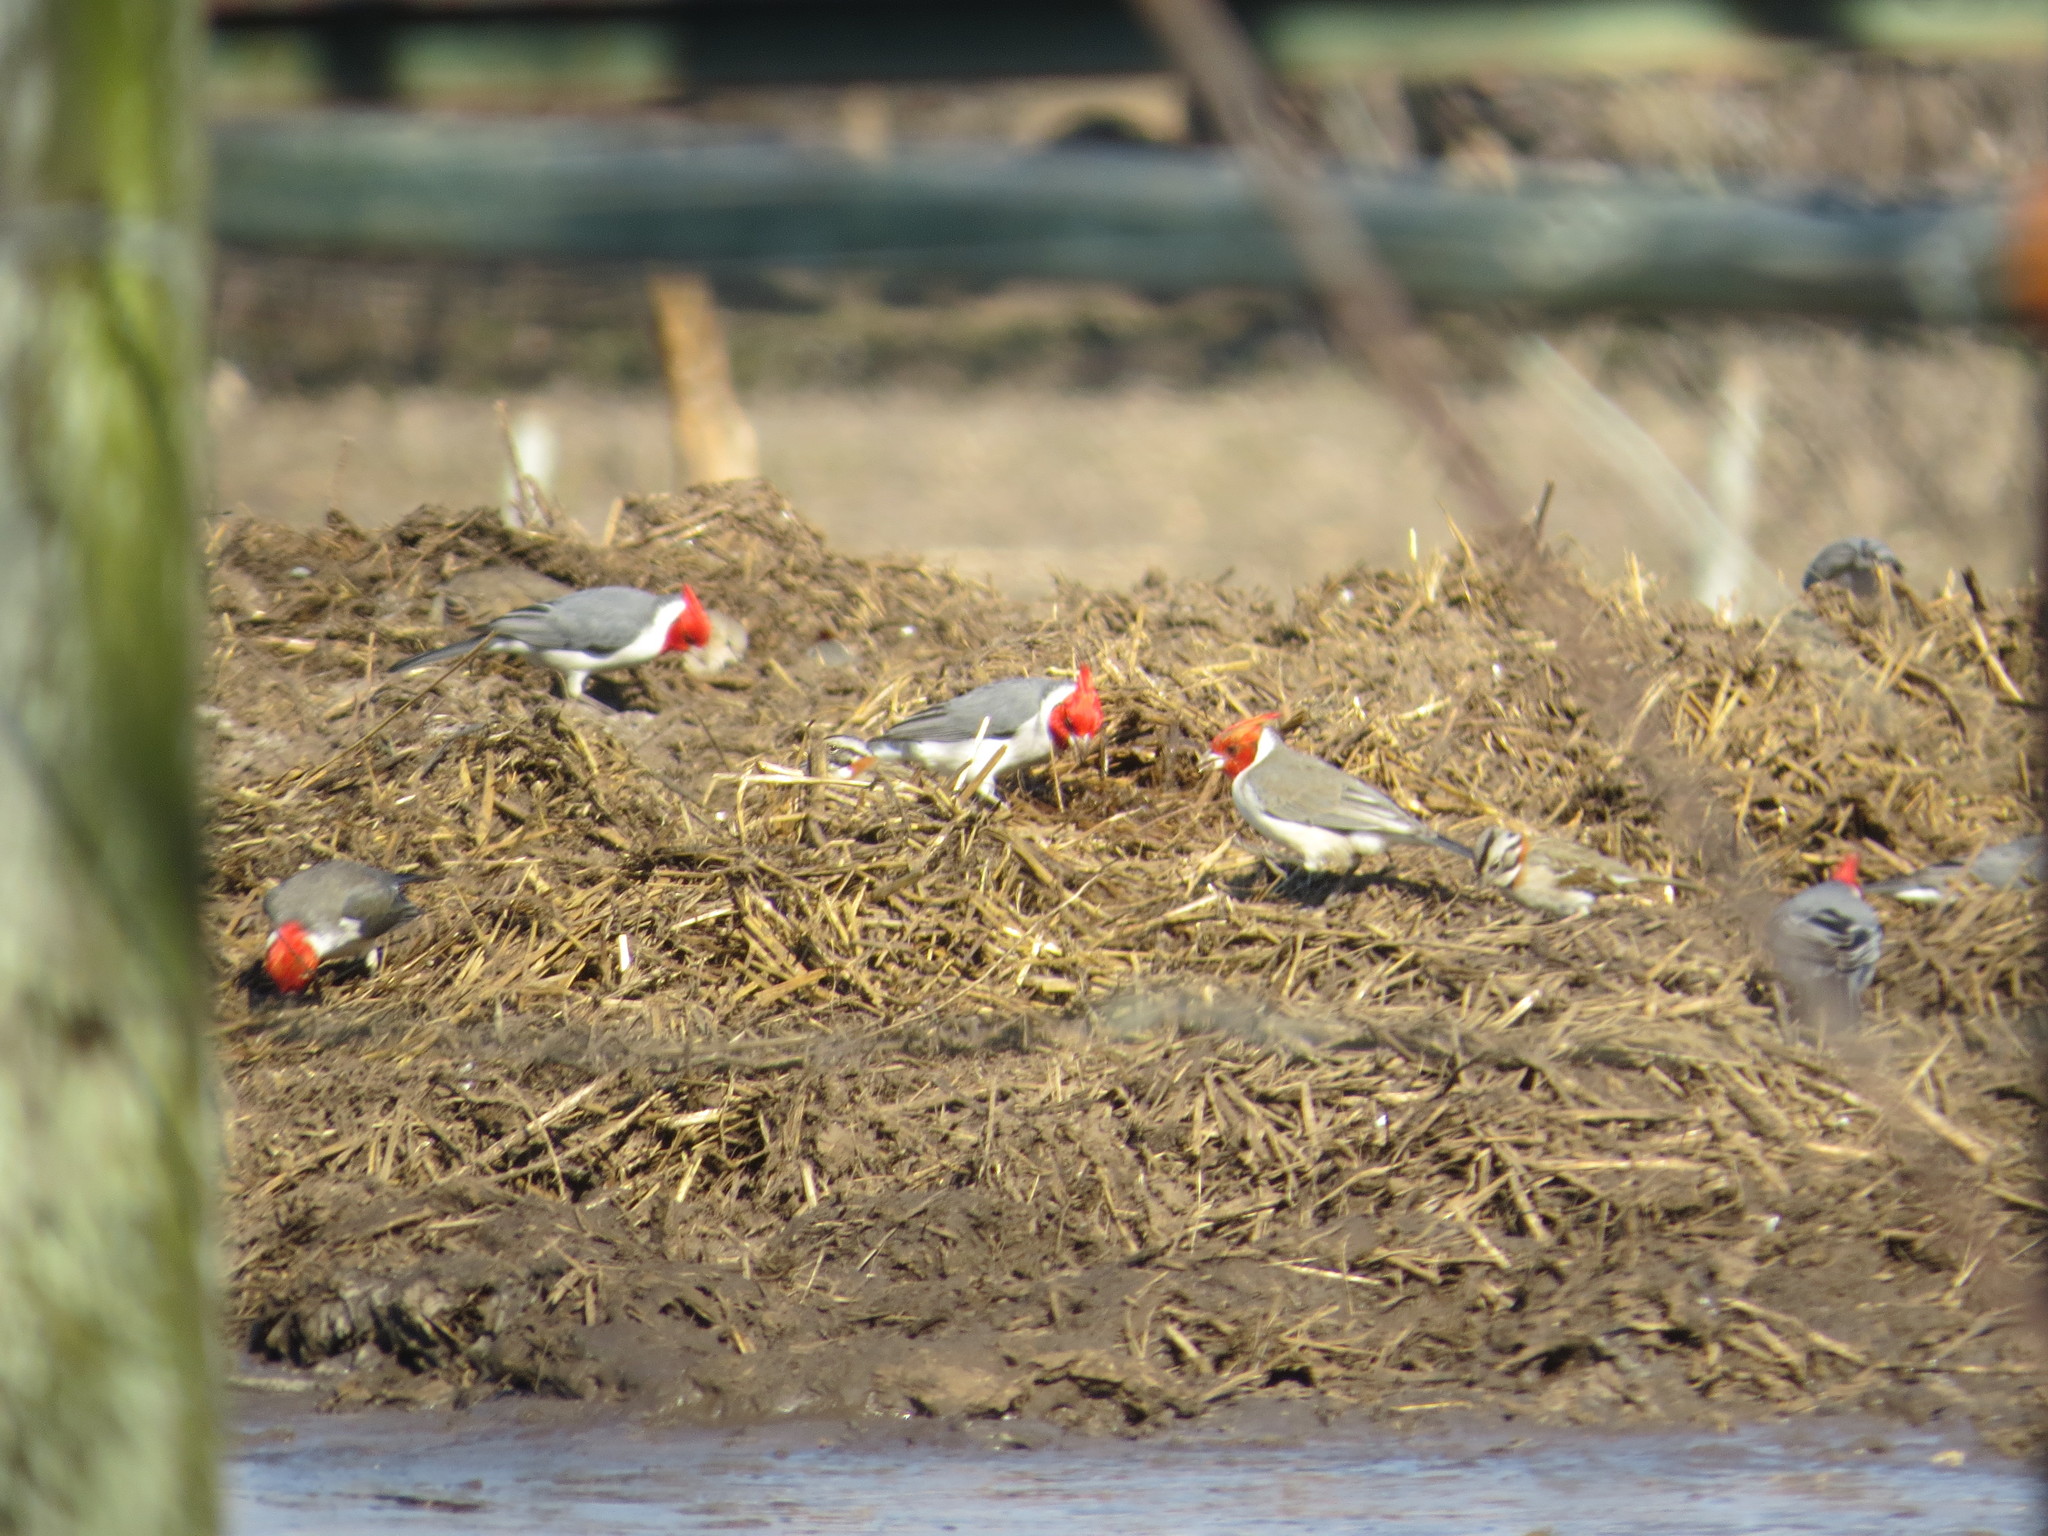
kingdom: Animalia
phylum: Chordata
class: Aves
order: Passeriformes
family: Thraupidae
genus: Paroaria
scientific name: Paroaria coronata
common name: Red-crested cardinal
